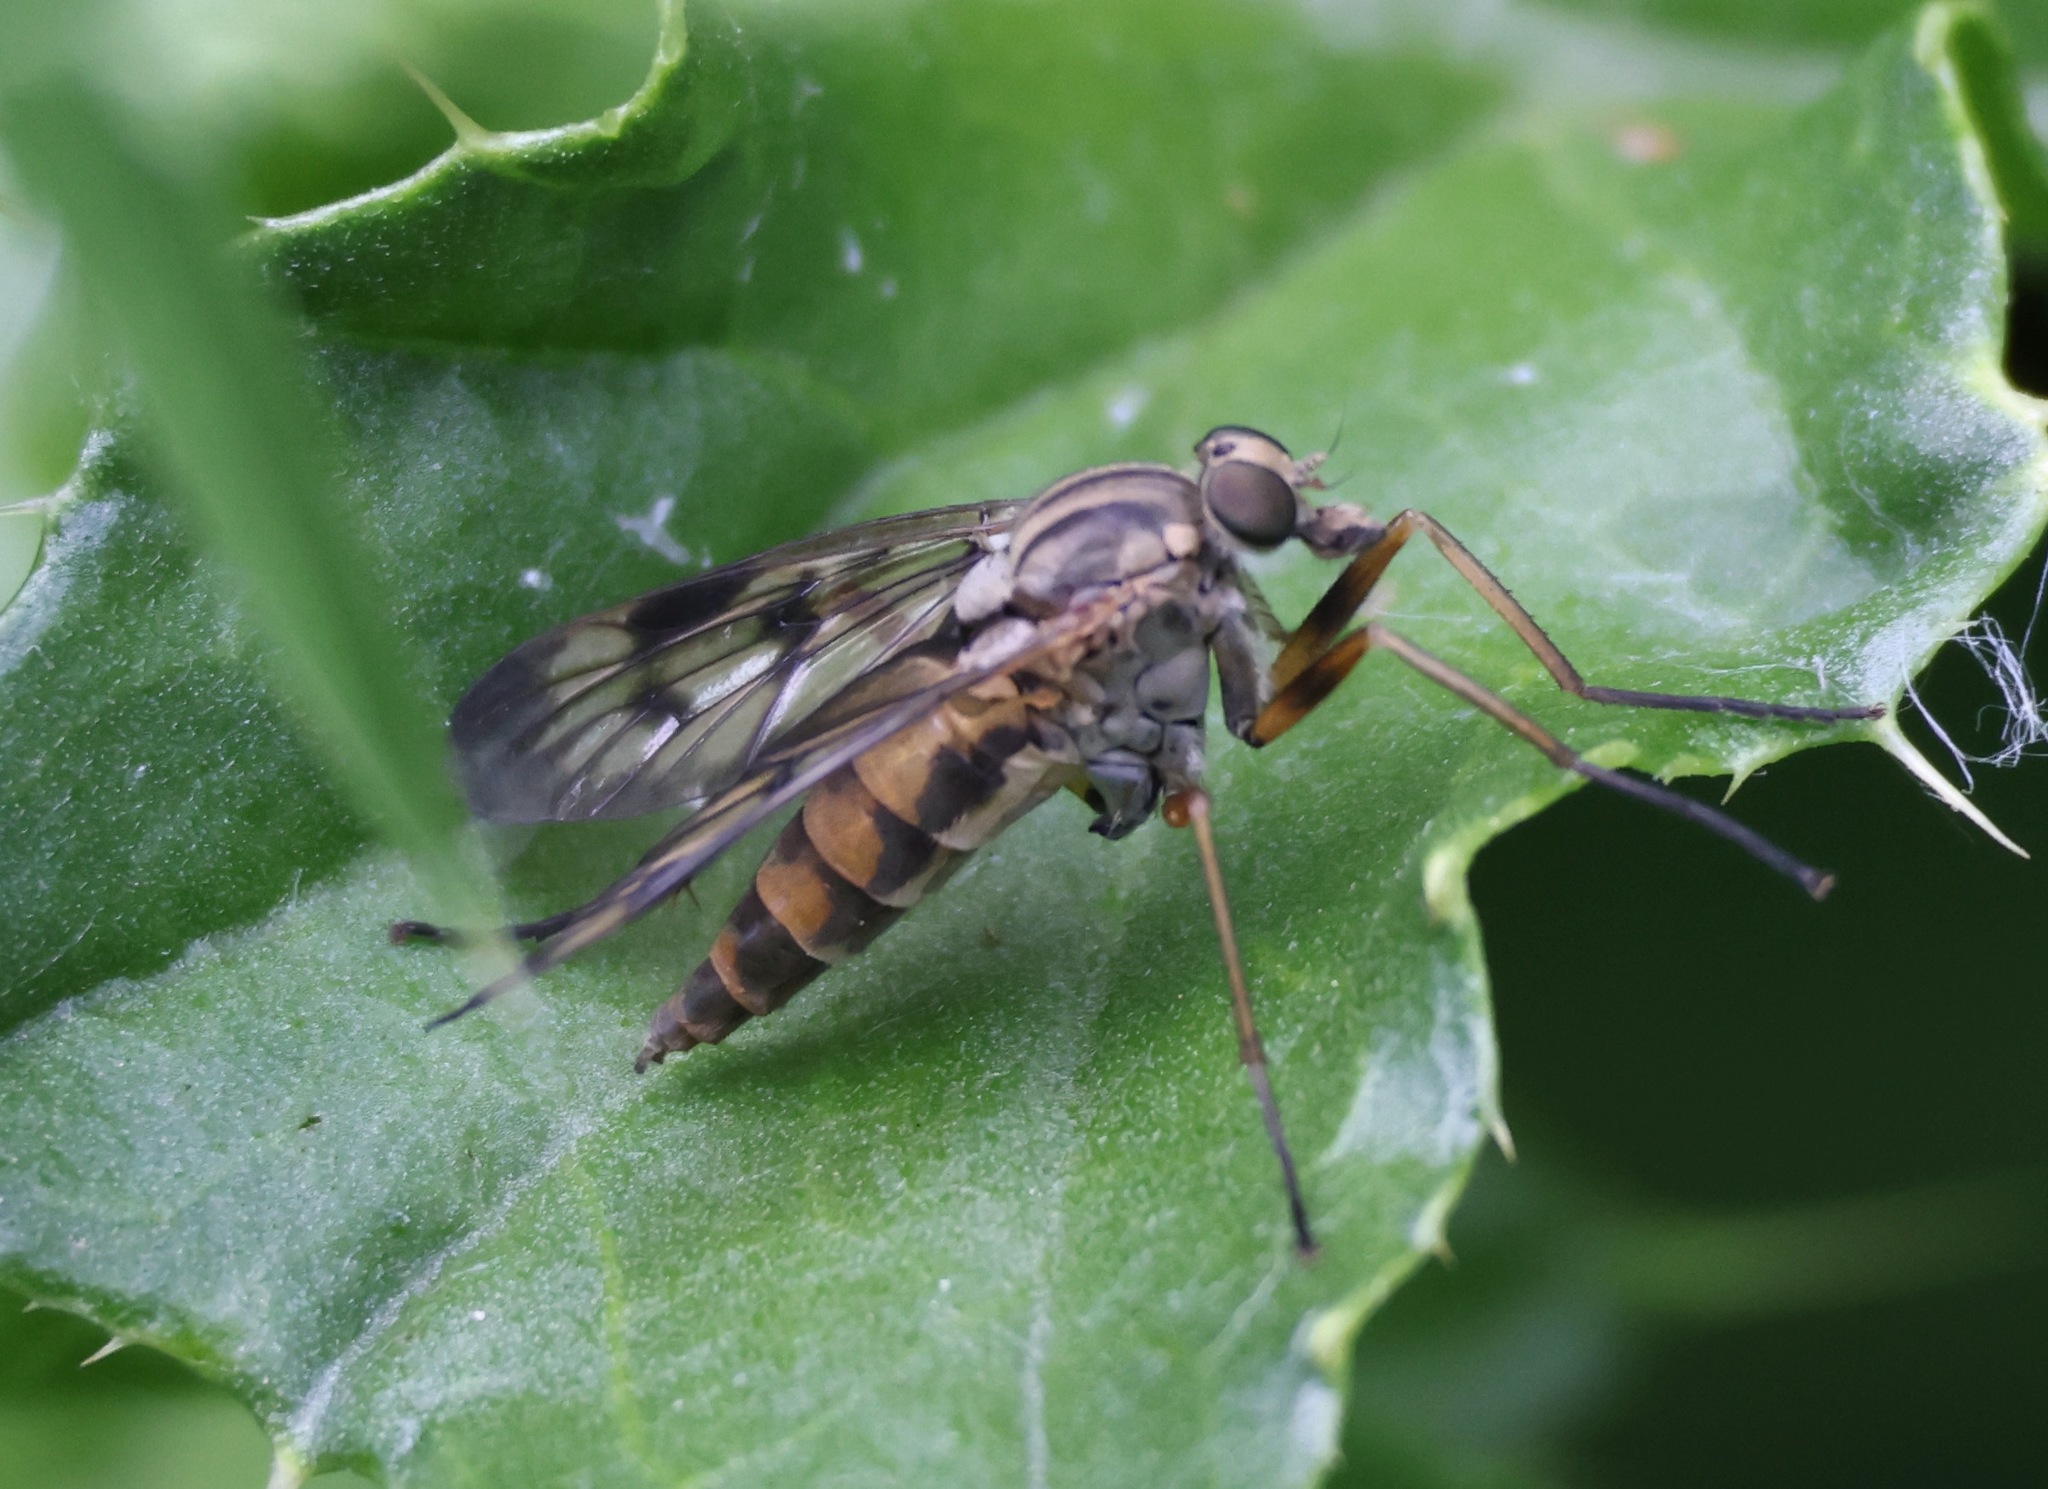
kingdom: Animalia
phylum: Arthropoda
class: Insecta
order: Diptera
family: Rhagionidae
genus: Rhagio
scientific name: Rhagio scolopacea
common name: Downlooker snipefly
